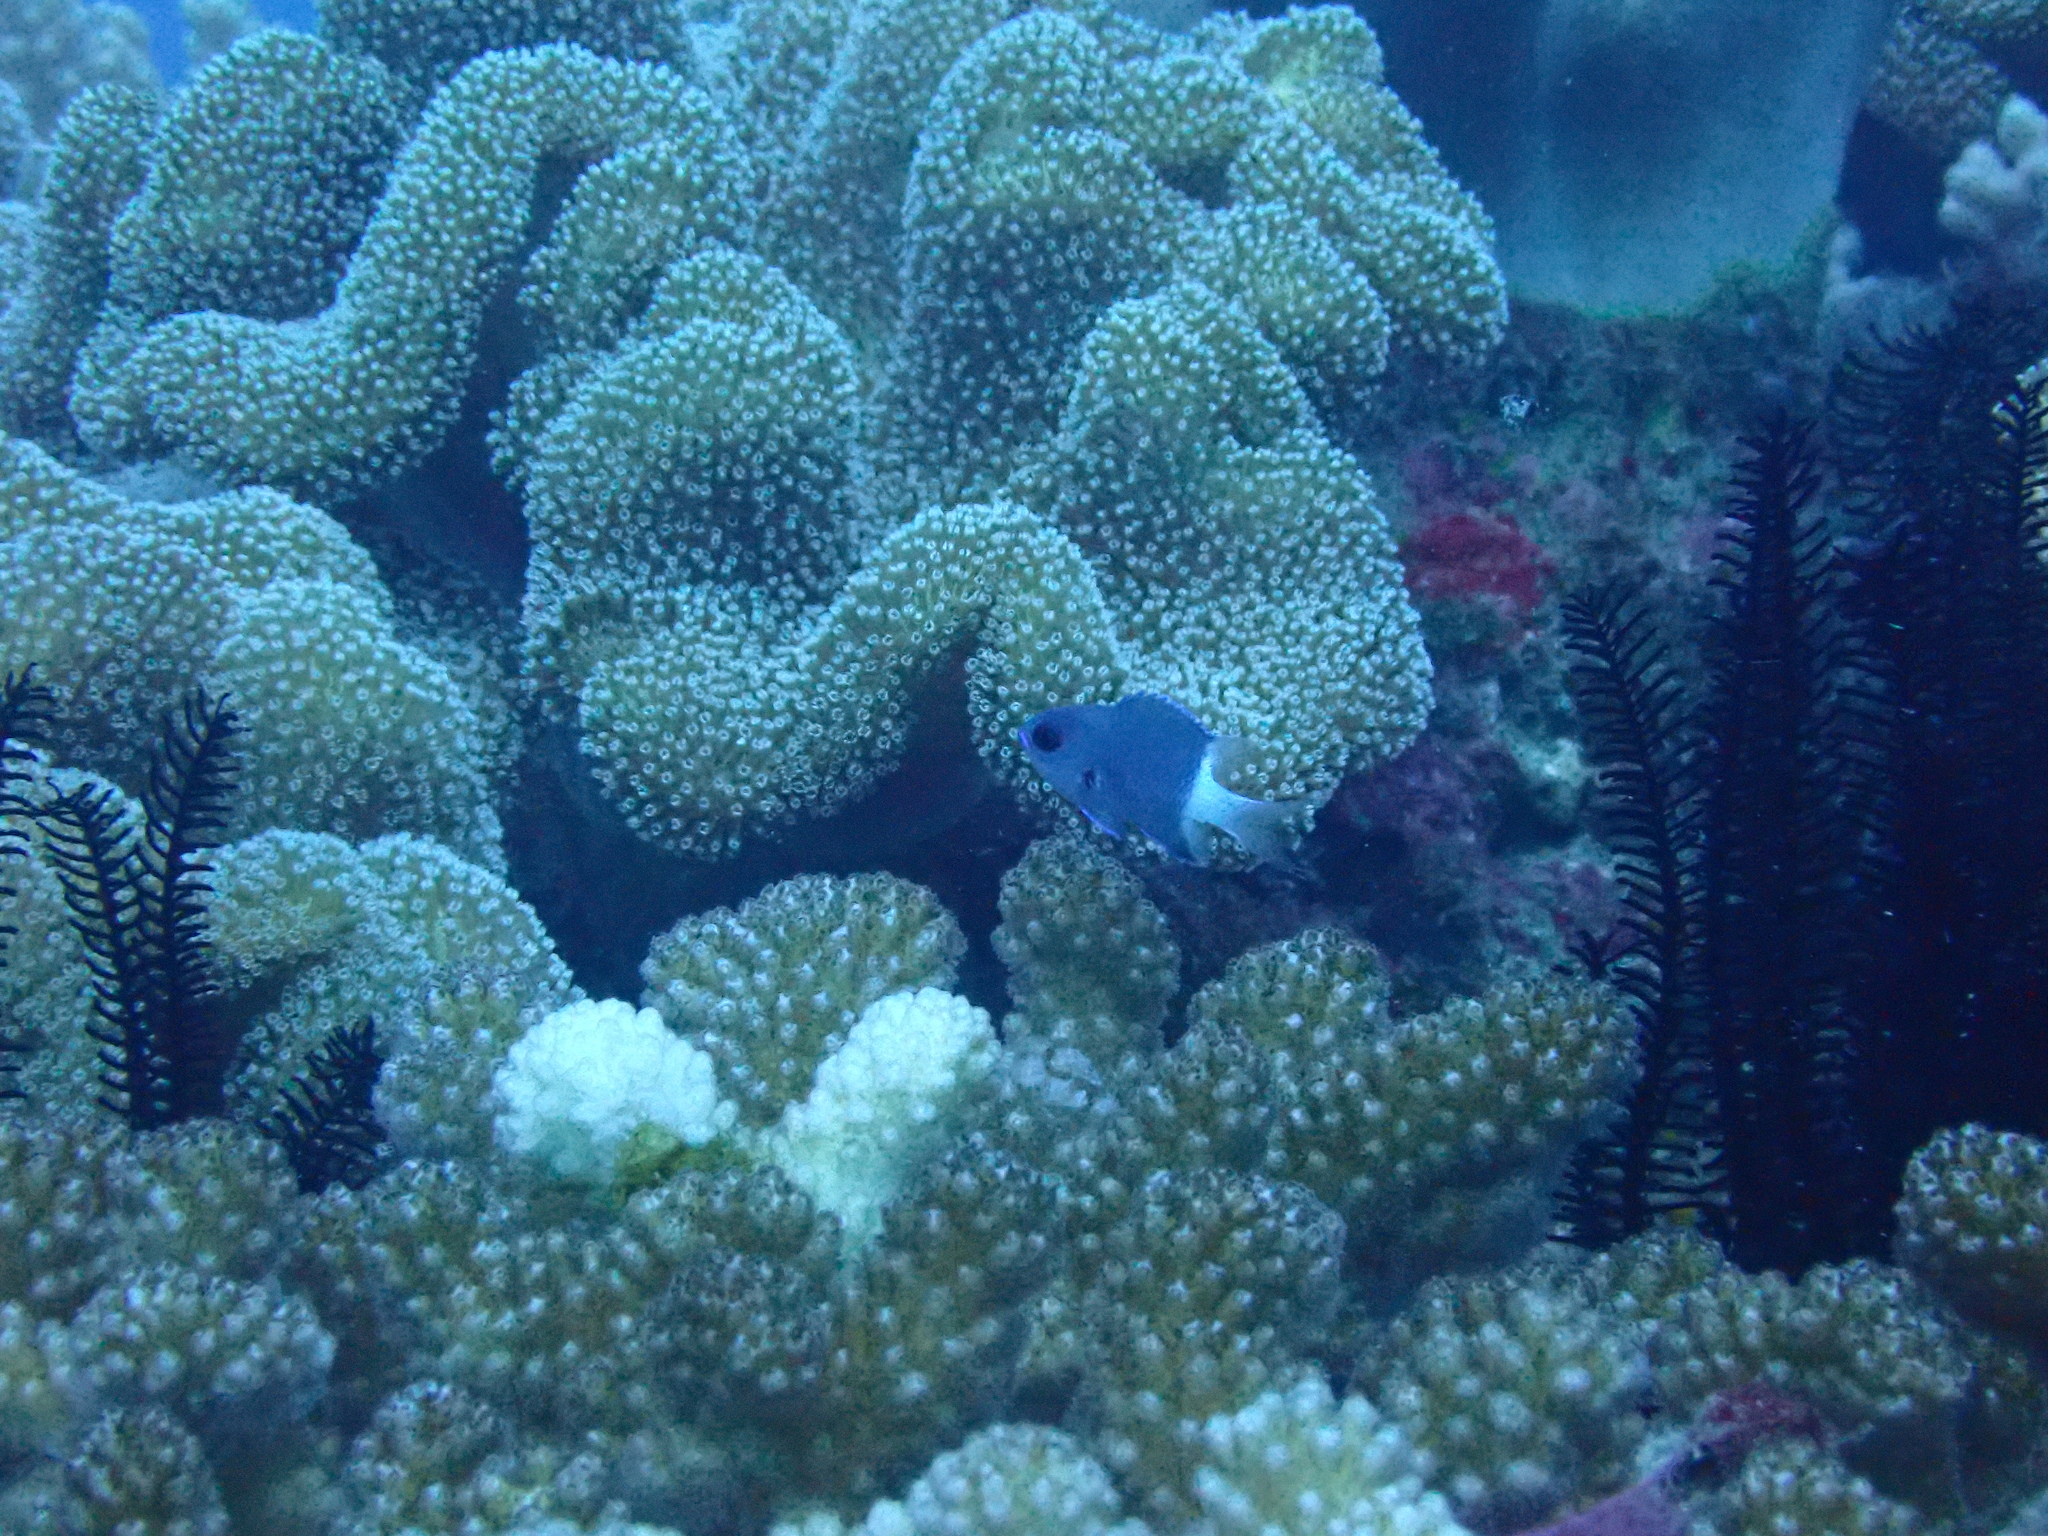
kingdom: Animalia
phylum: Chordata
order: Perciformes
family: Pomacentridae
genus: Pycnochromis
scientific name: Pycnochromis margaritifer
